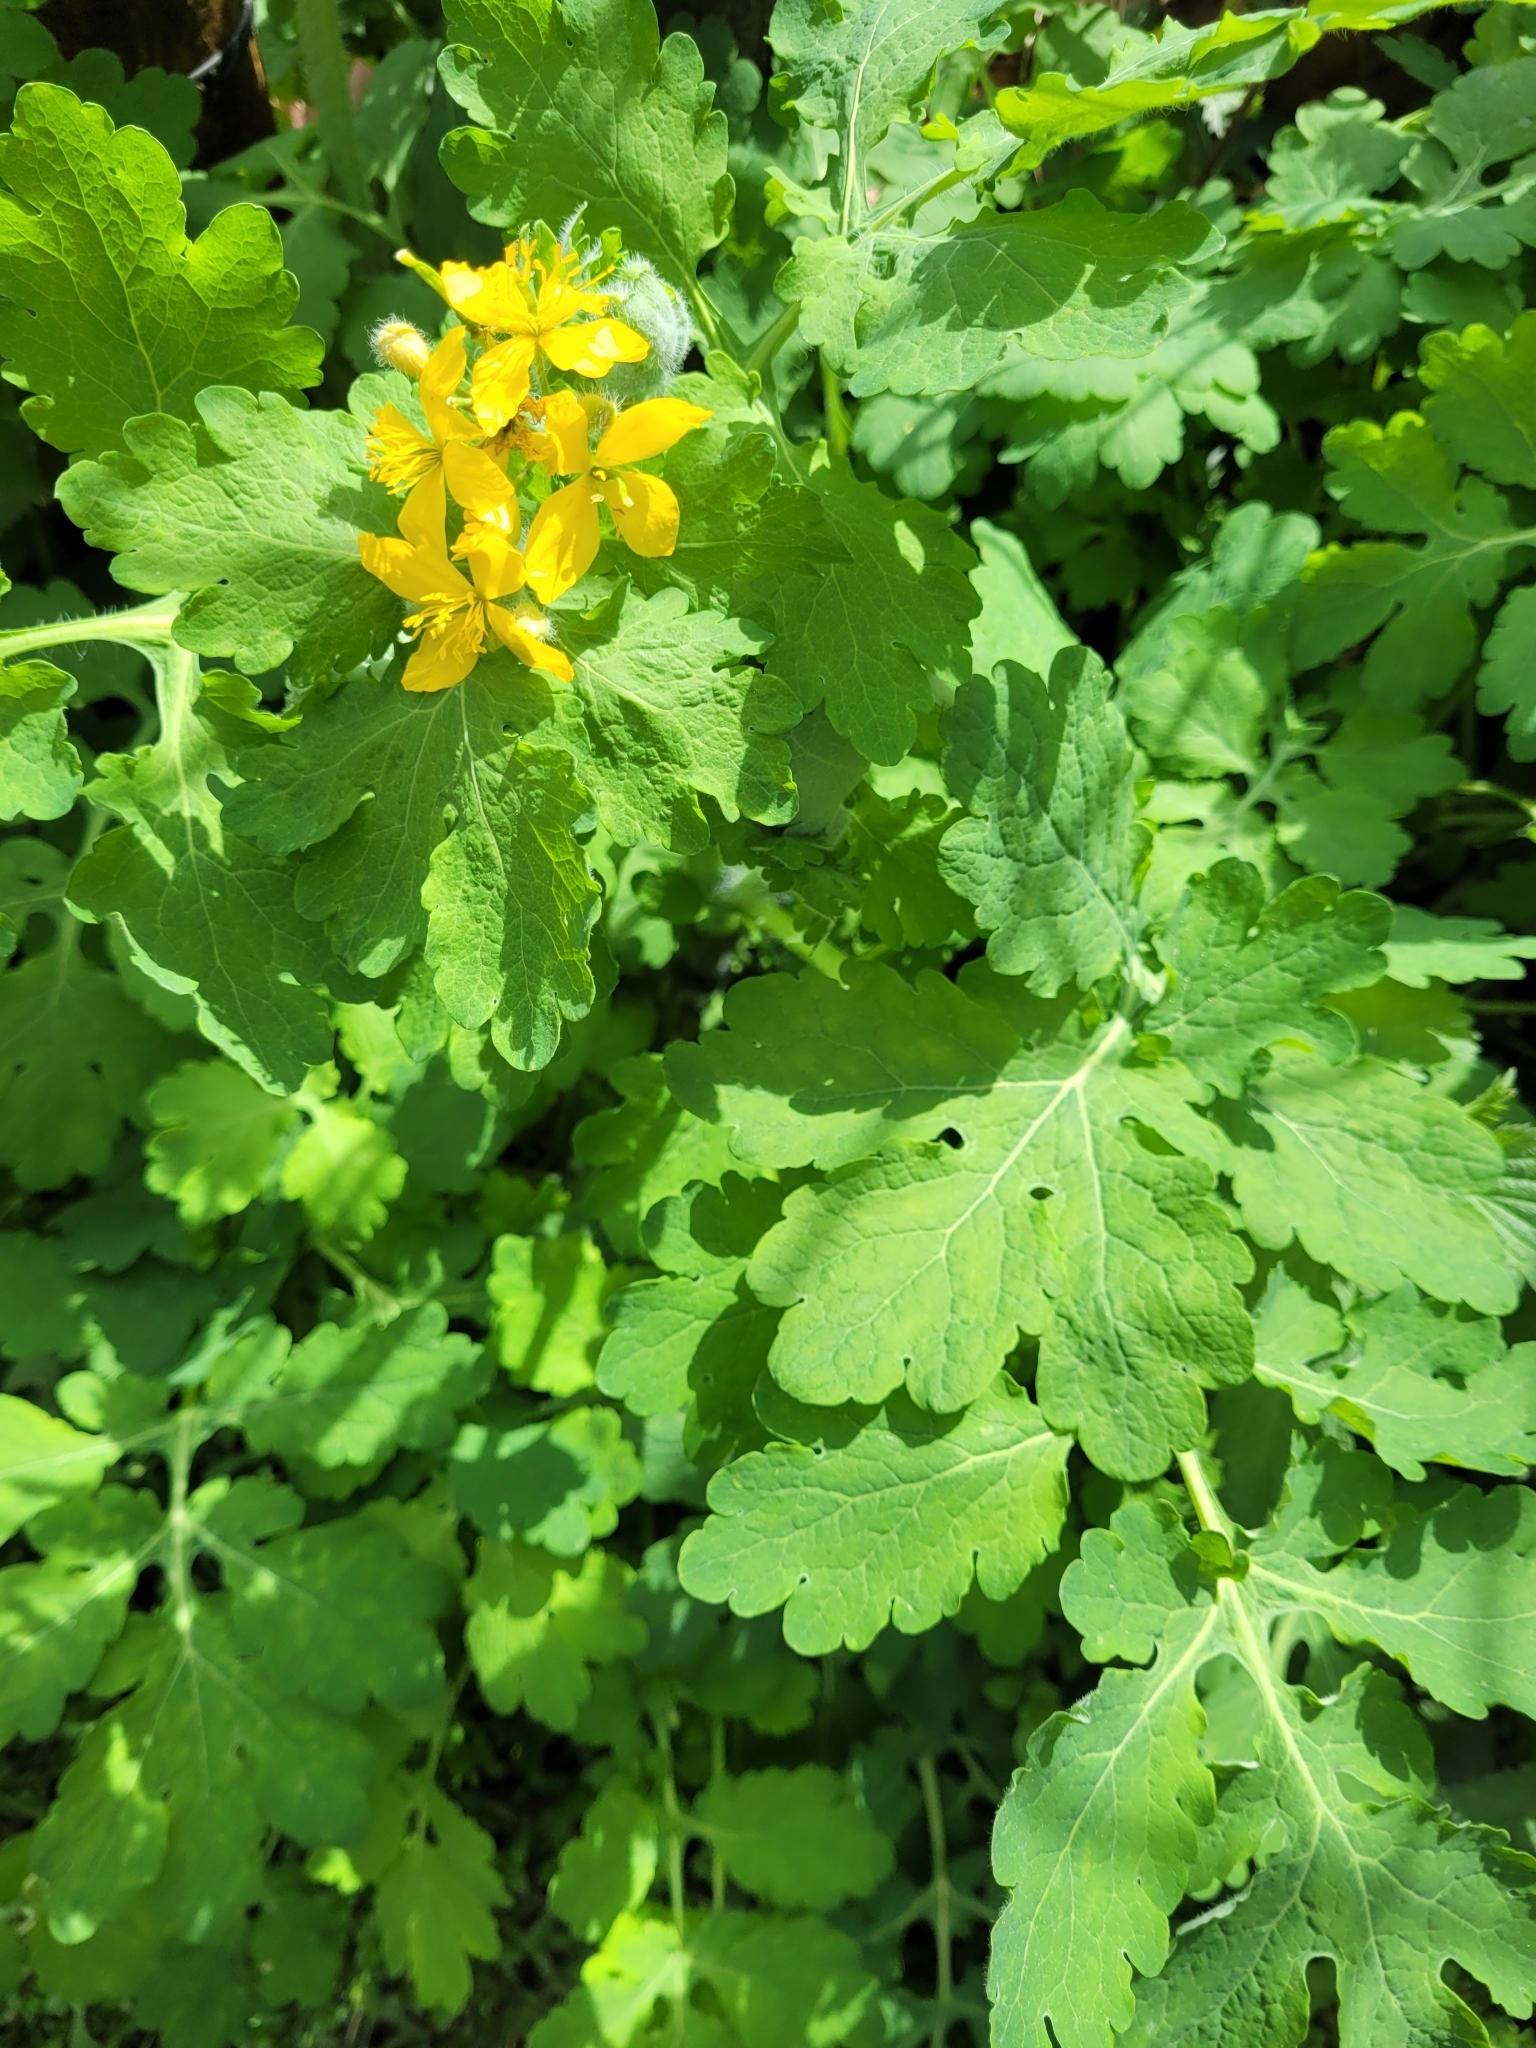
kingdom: Plantae
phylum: Tracheophyta
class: Magnoliopsida
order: Ranunculales
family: Papaveraceae
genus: Chelidonium
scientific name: Chelidonium majus
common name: Greater celandine
